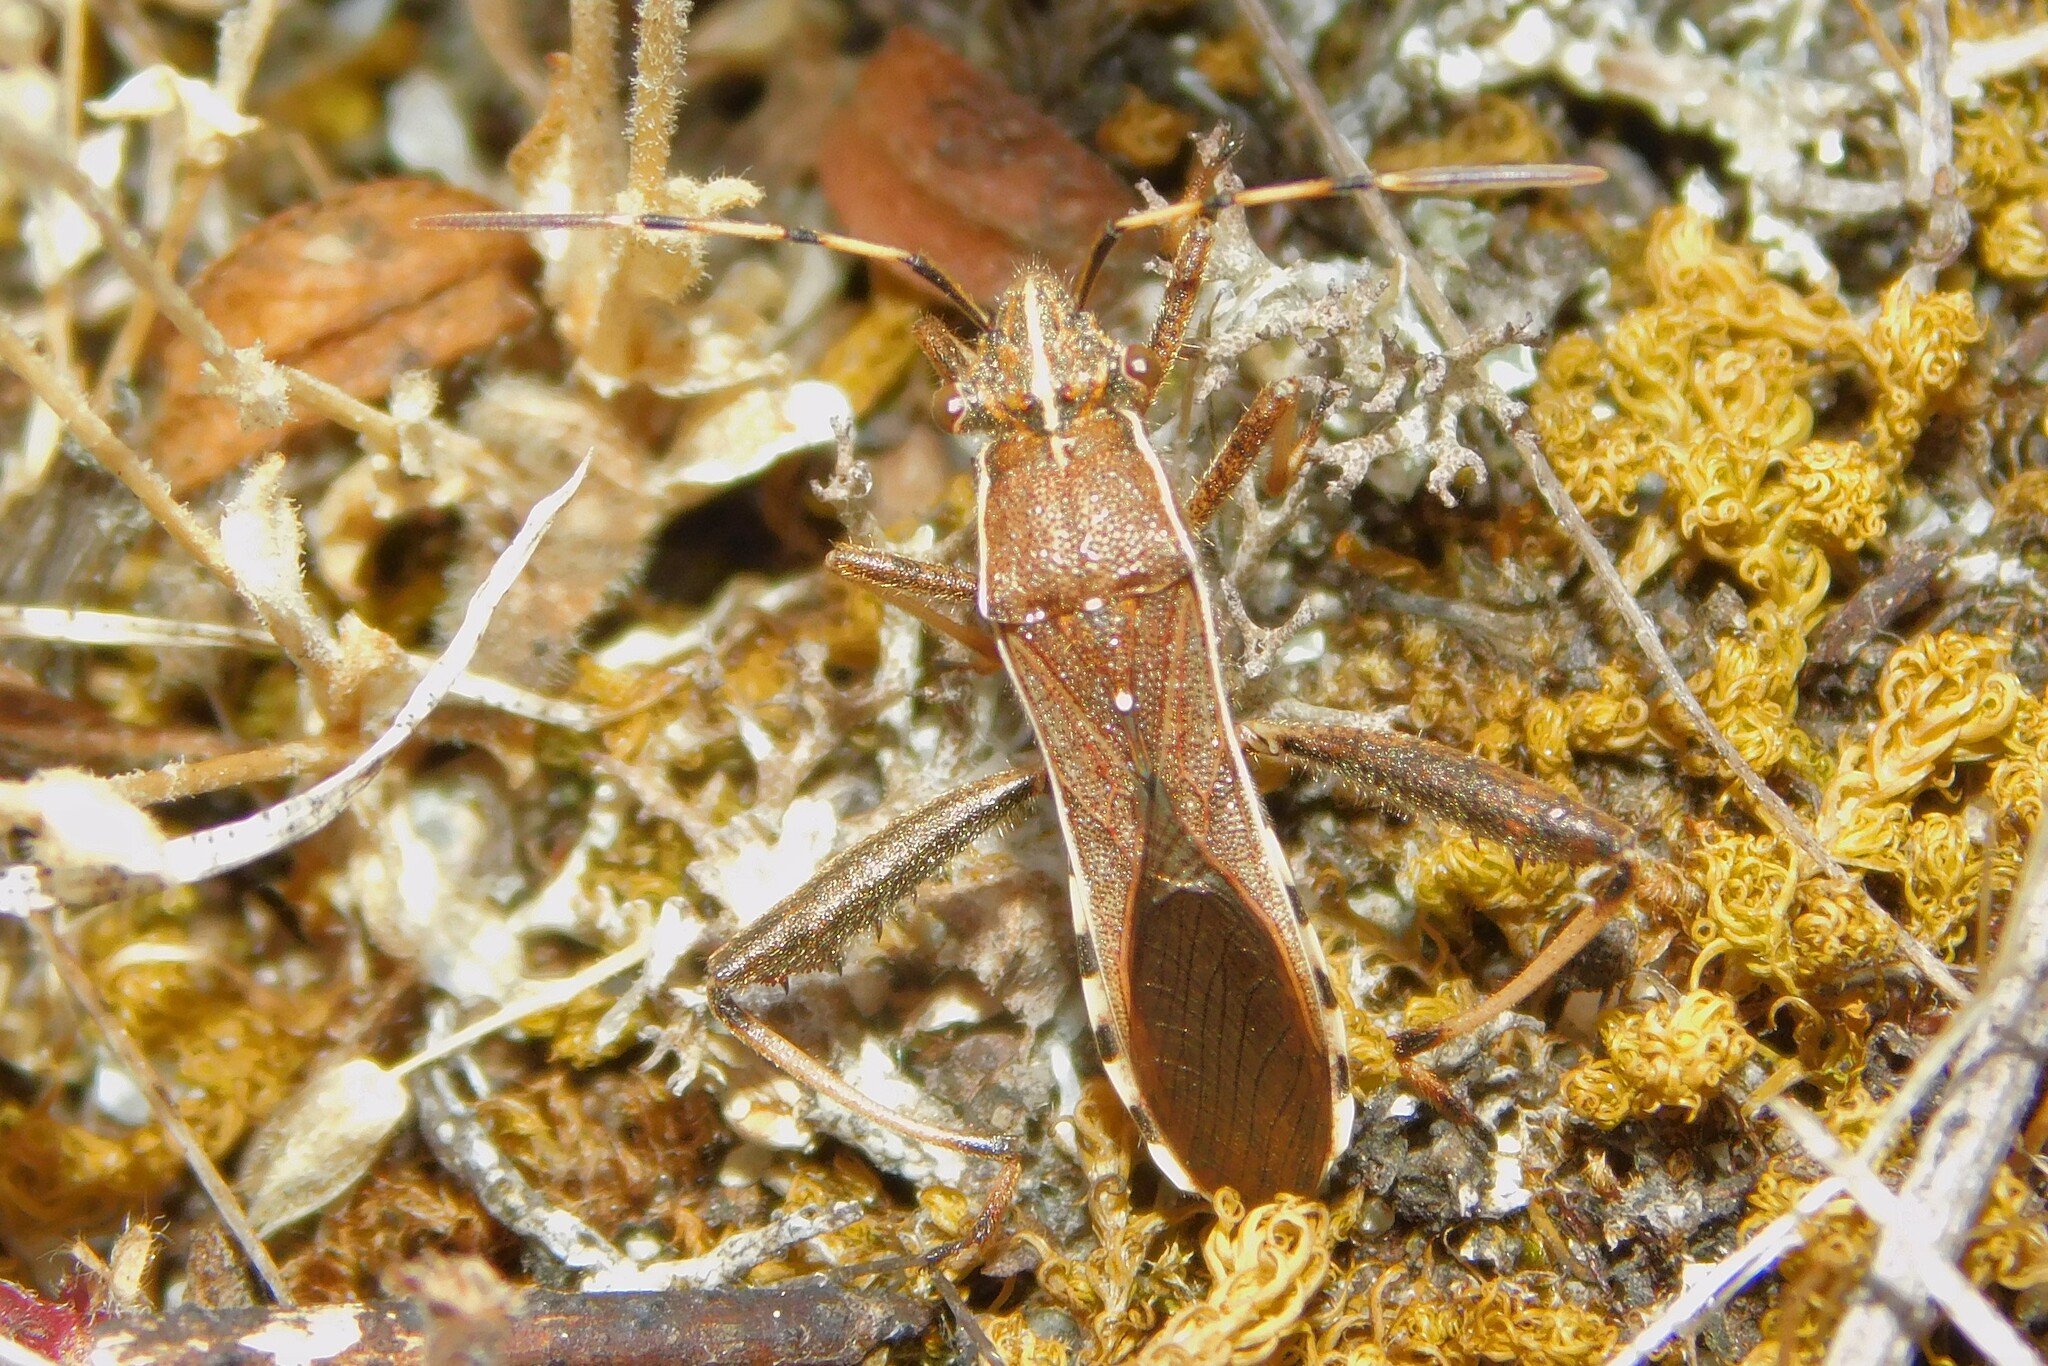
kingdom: Animalia
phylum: Arthropoda
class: Insecta
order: Hemiptera
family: Alydidae
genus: Camptopus
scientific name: Camptopus lateralis
